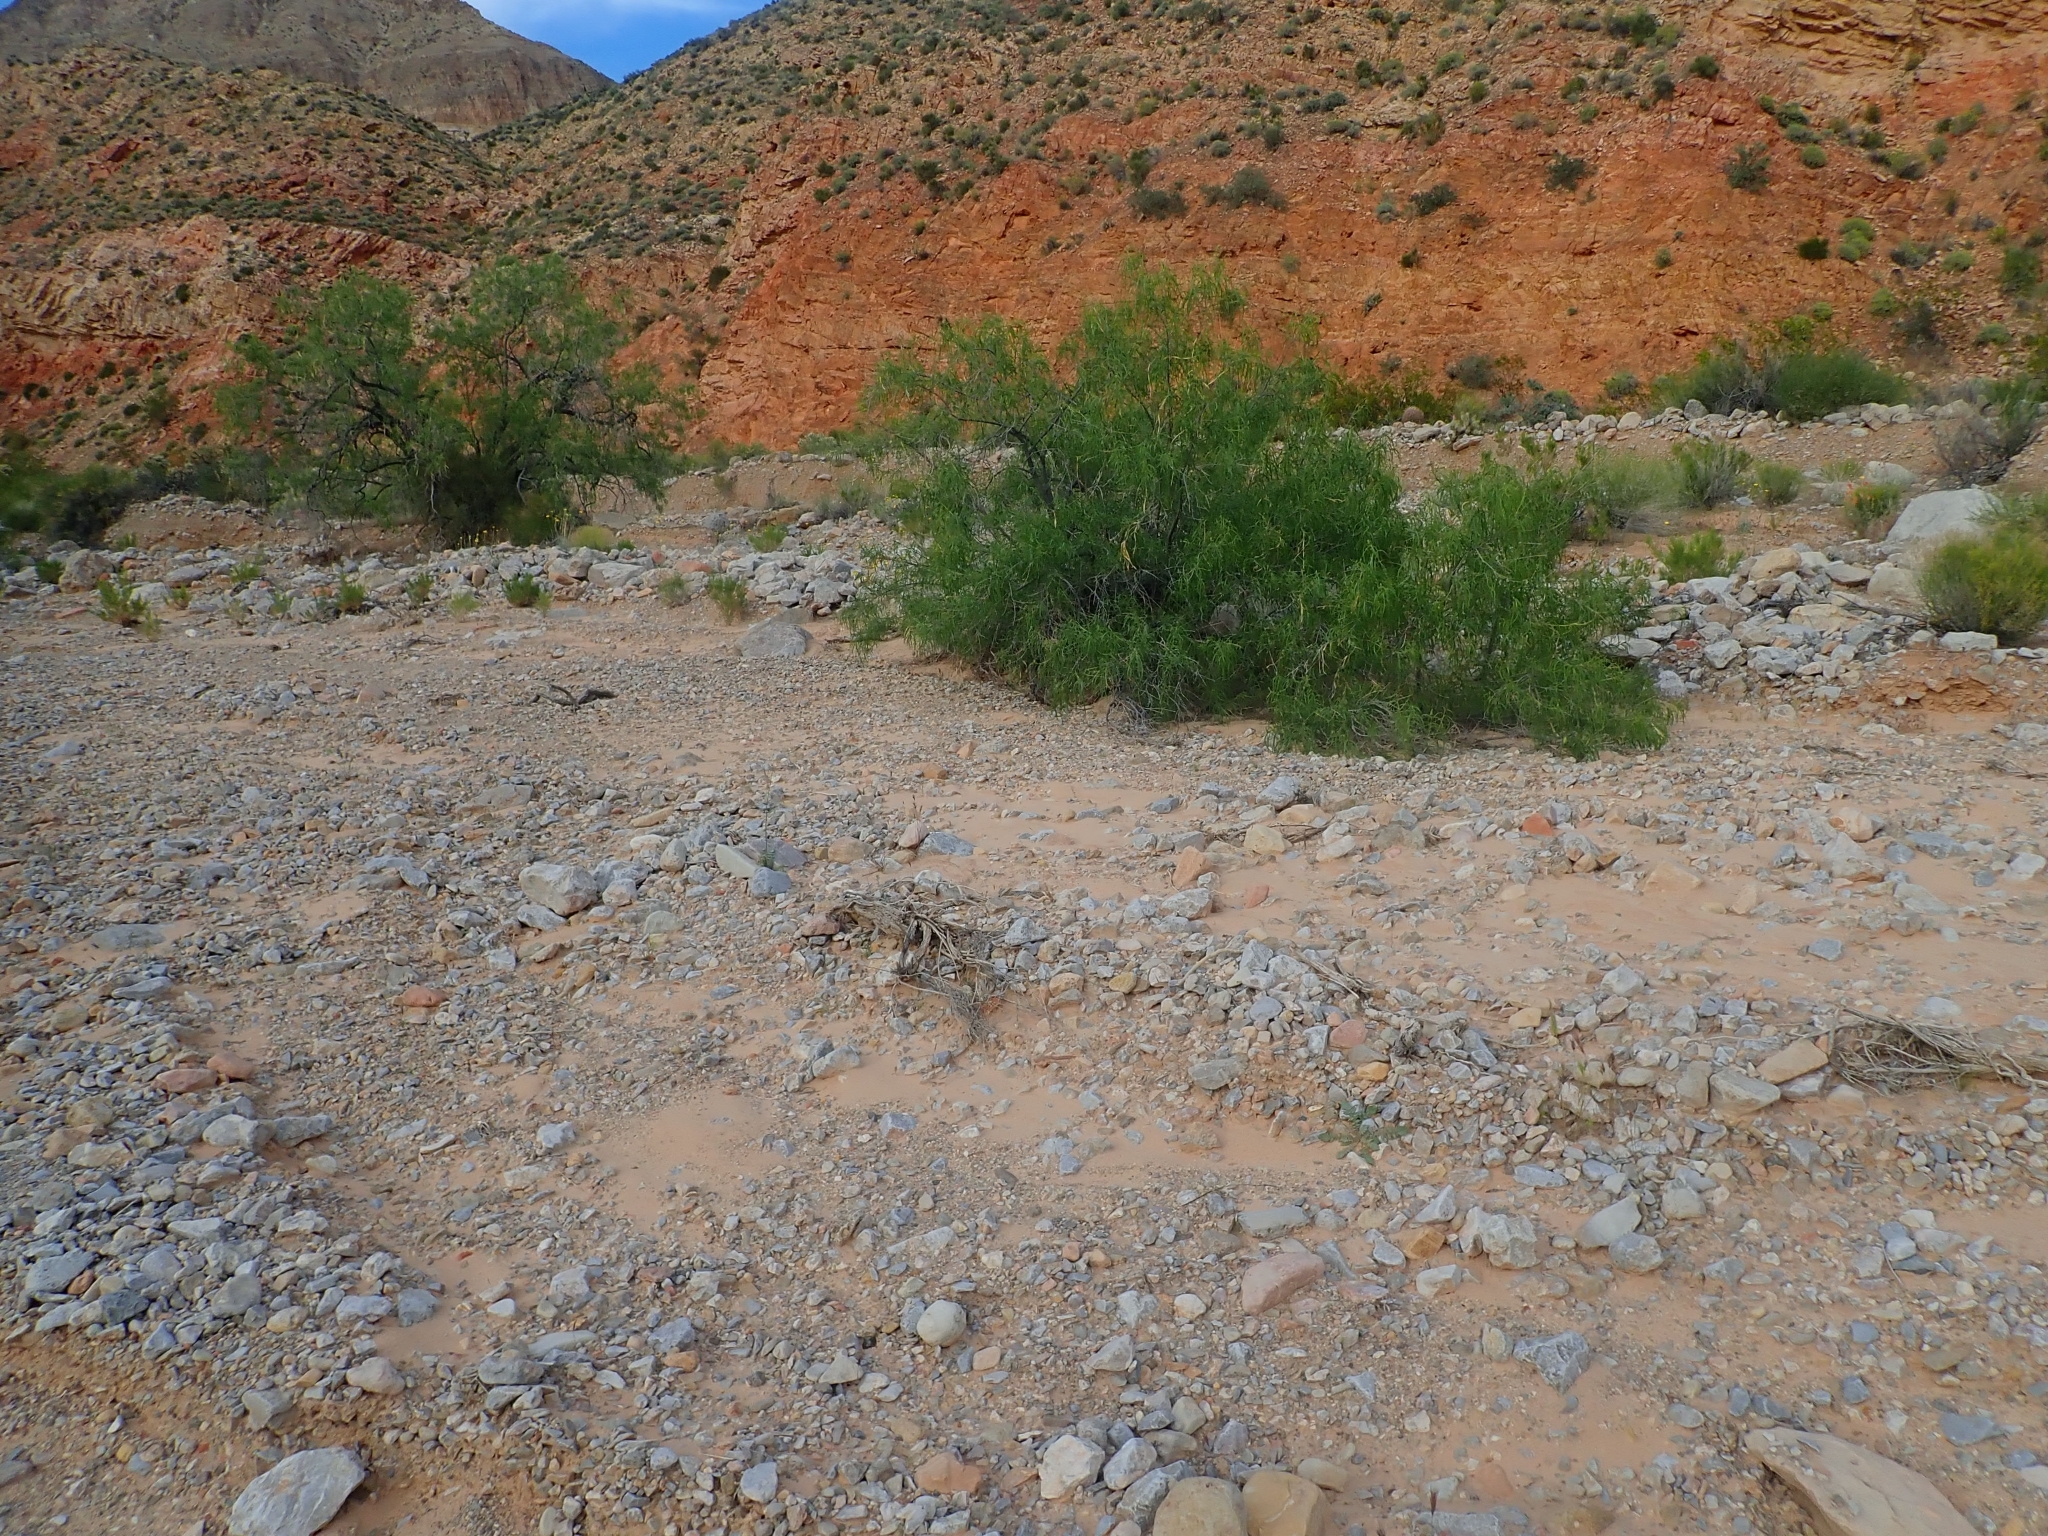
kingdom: Plantae
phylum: Tracheophyta
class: Magnoliopsida
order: Lamiales
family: Bignoniaceae
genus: Chilopsis
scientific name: Chilopsis linearis
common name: Desert-willow
